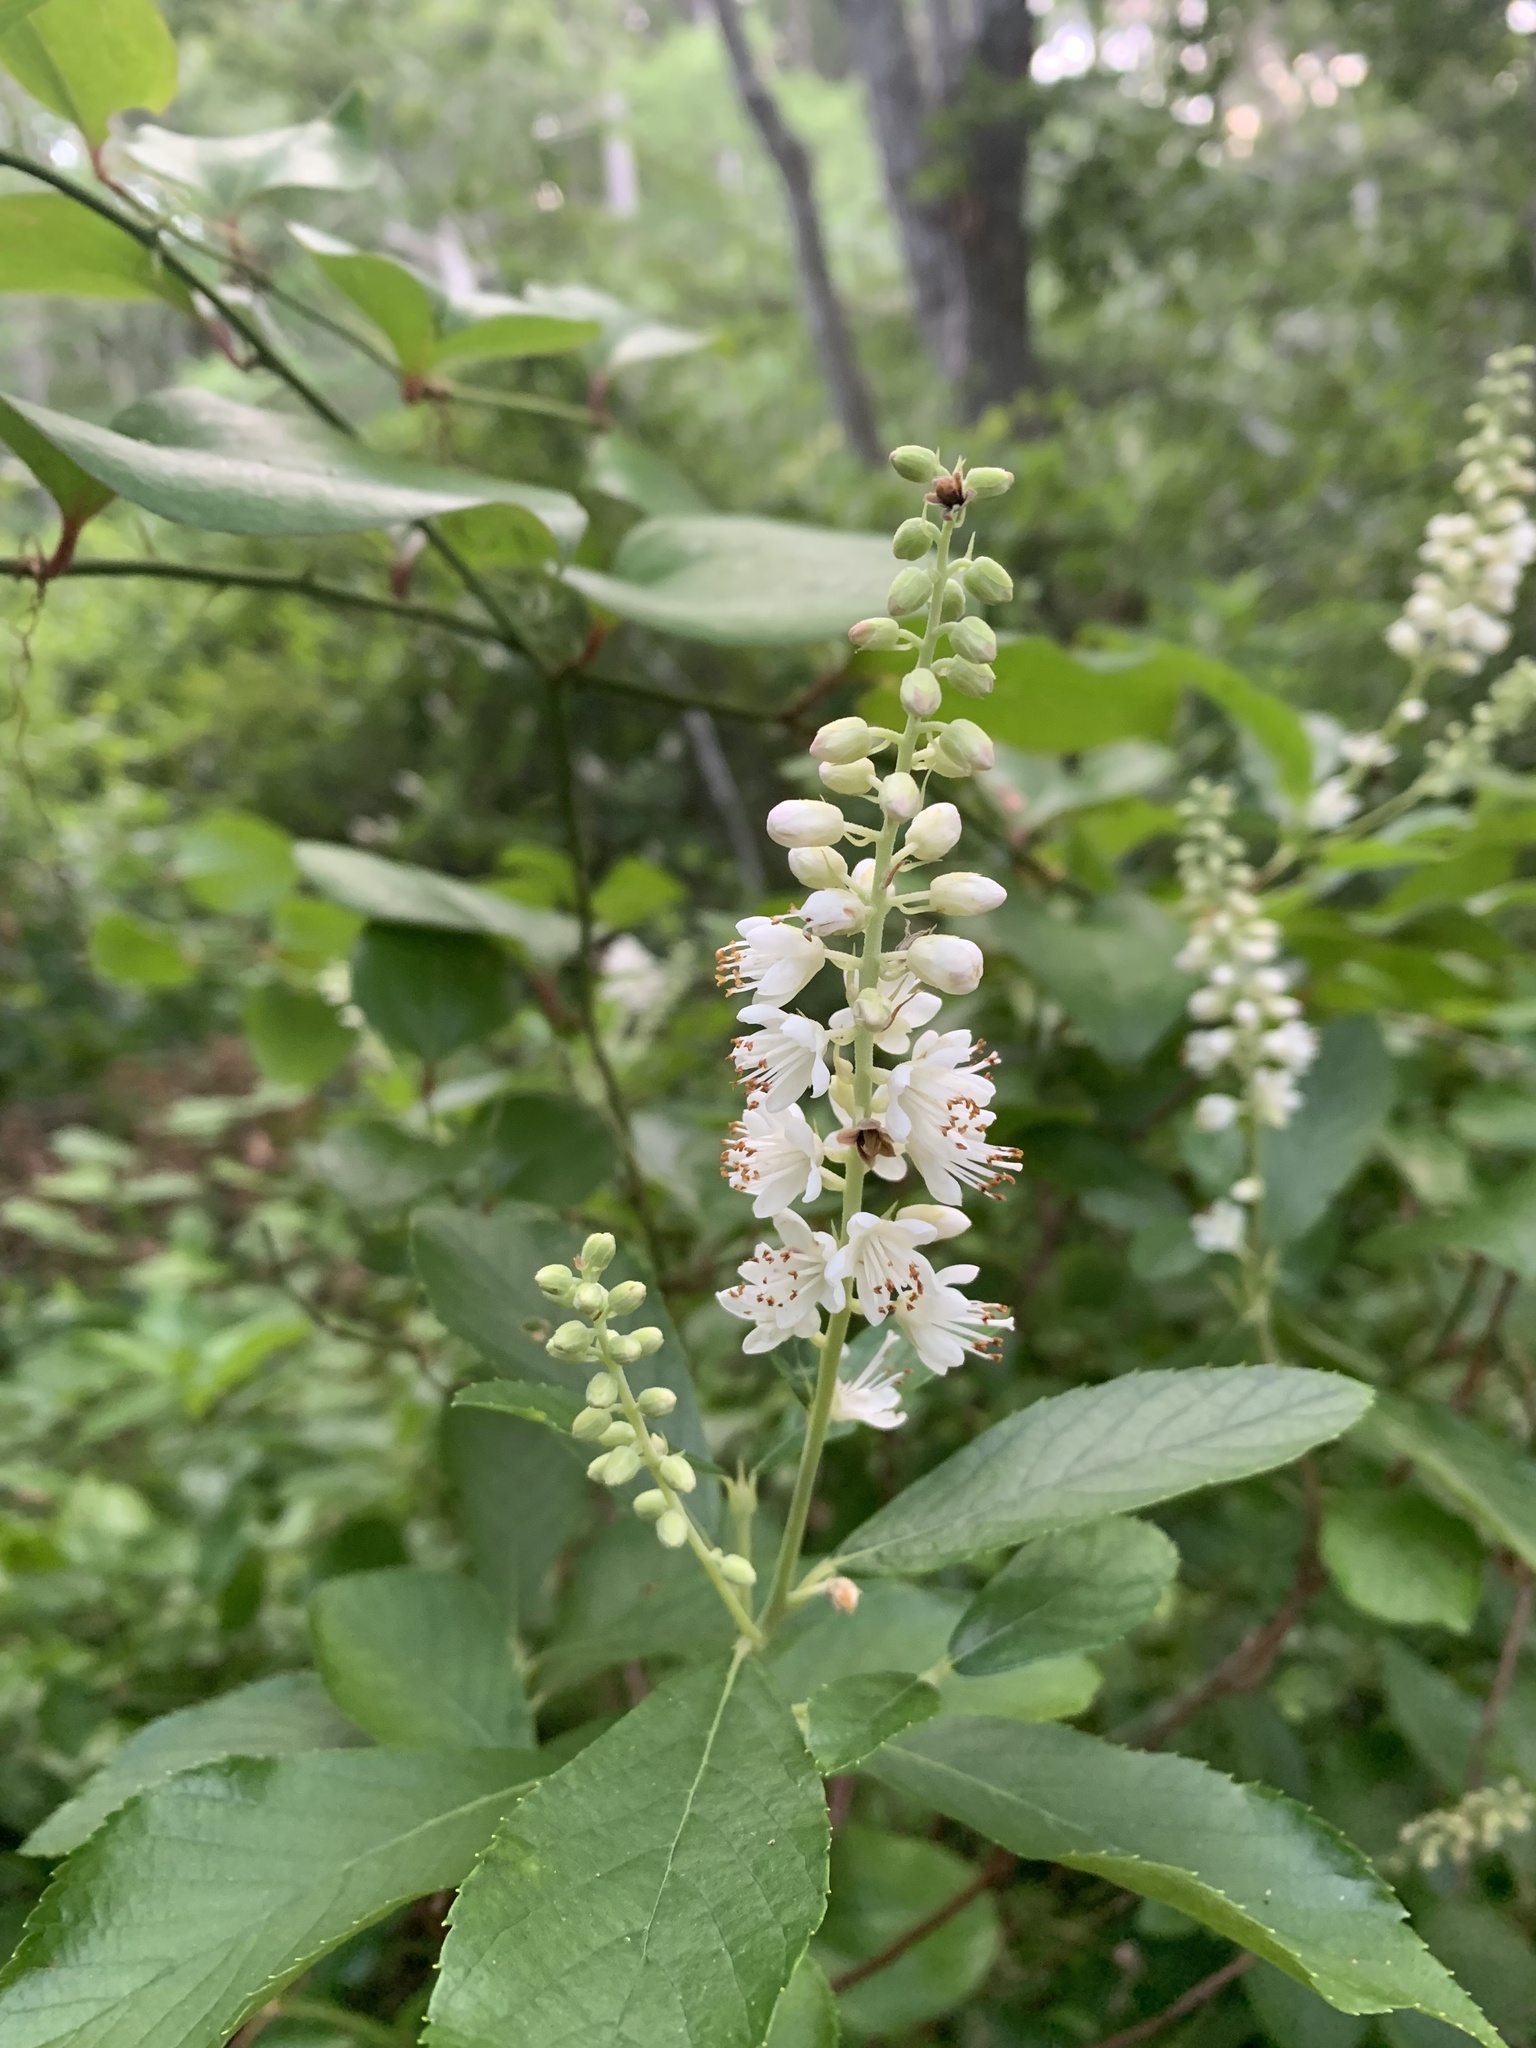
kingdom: Plantae
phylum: Tracheophyta
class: Magnoliopsida
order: Ericales
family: Clethraceae
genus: Clethra
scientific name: Clethra alnifolia
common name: Sweet pepperbush
